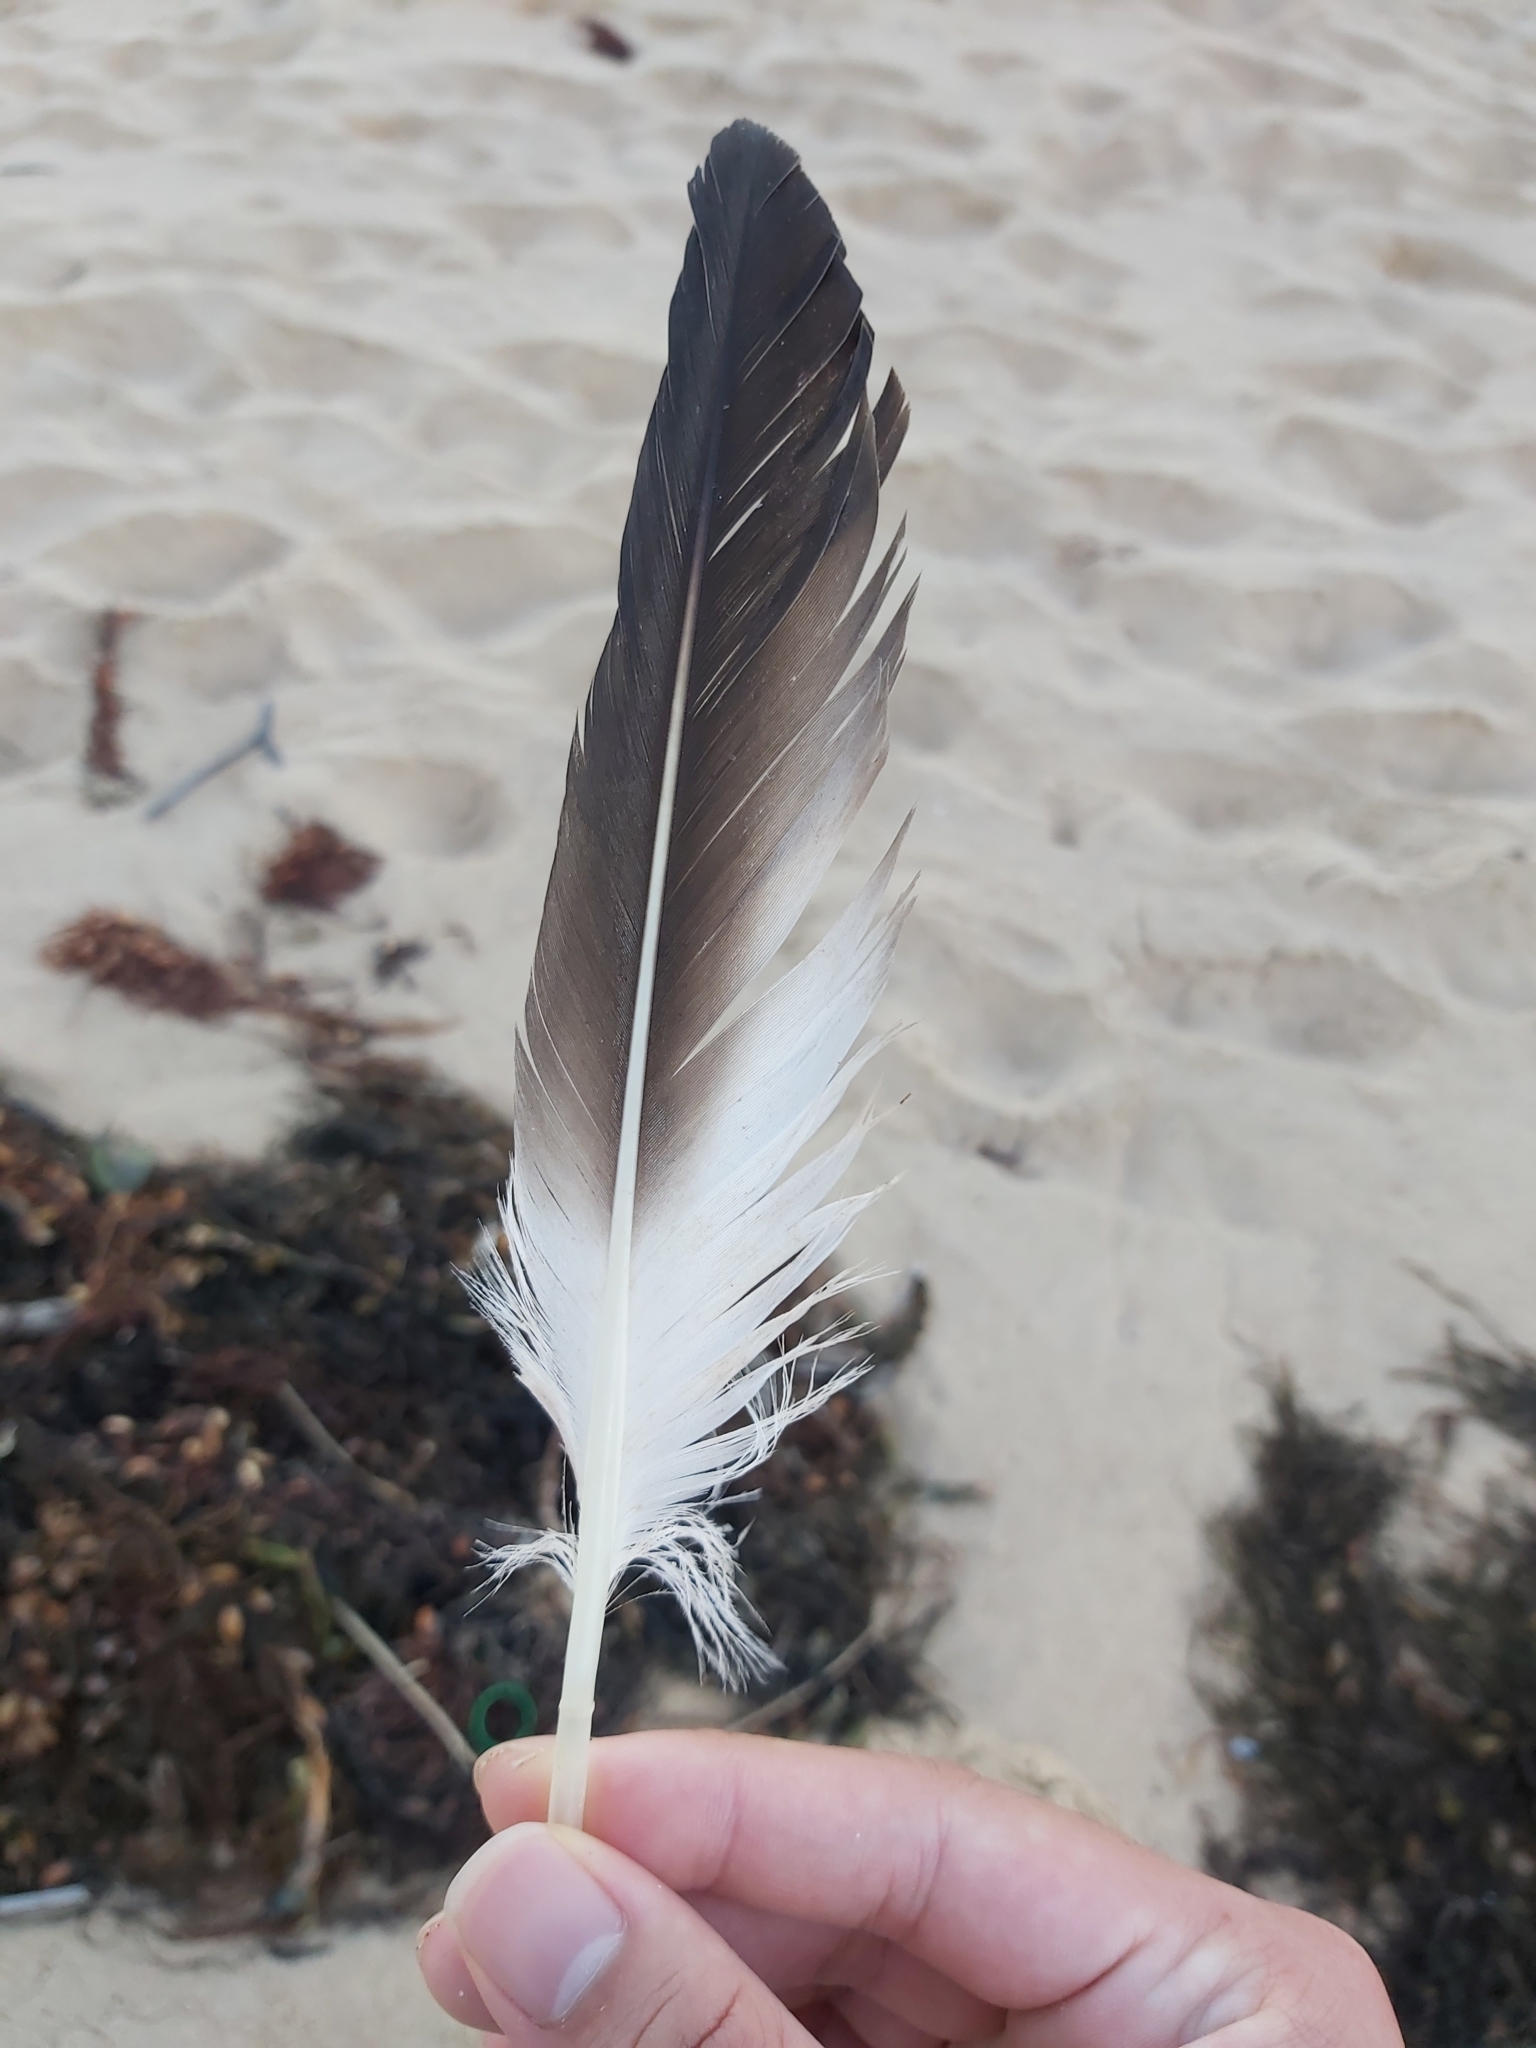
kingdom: Animalia
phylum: Chordata
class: Aves
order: Suliformes
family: Sulidae
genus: Morus
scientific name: Morus serrator
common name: Australasian gannet
